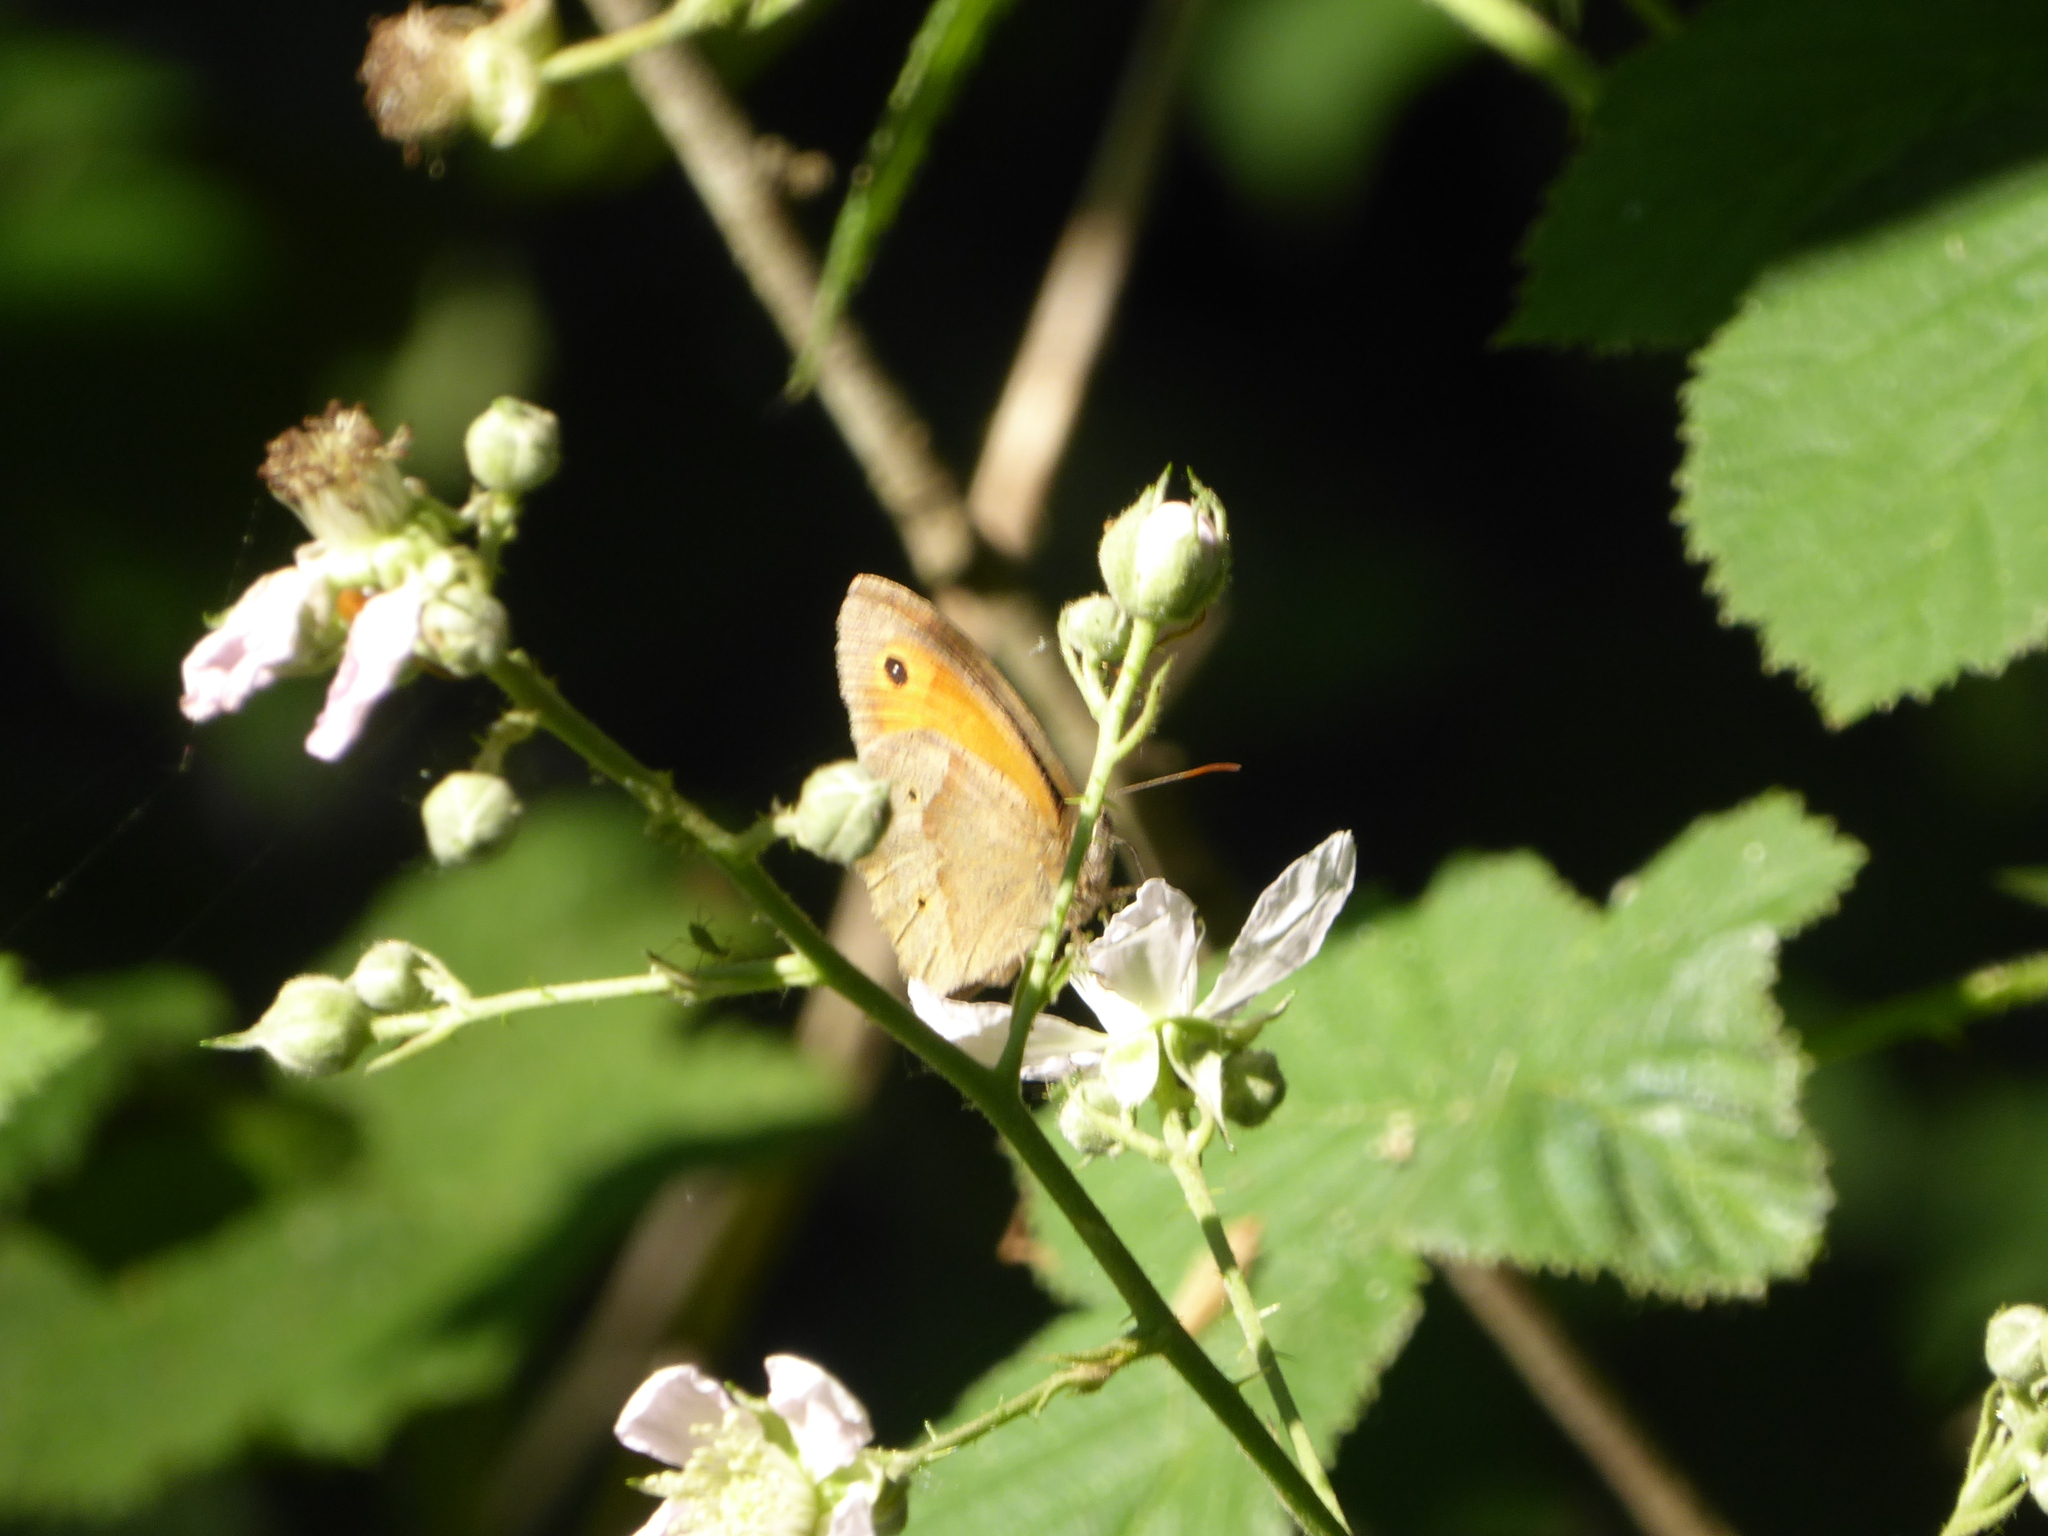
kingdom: Animalia
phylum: Arthropoda
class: Insecta
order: Lepidoptera
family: Nymphalidae
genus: Maniola
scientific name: Maniola jurtina
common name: Meadow brown
